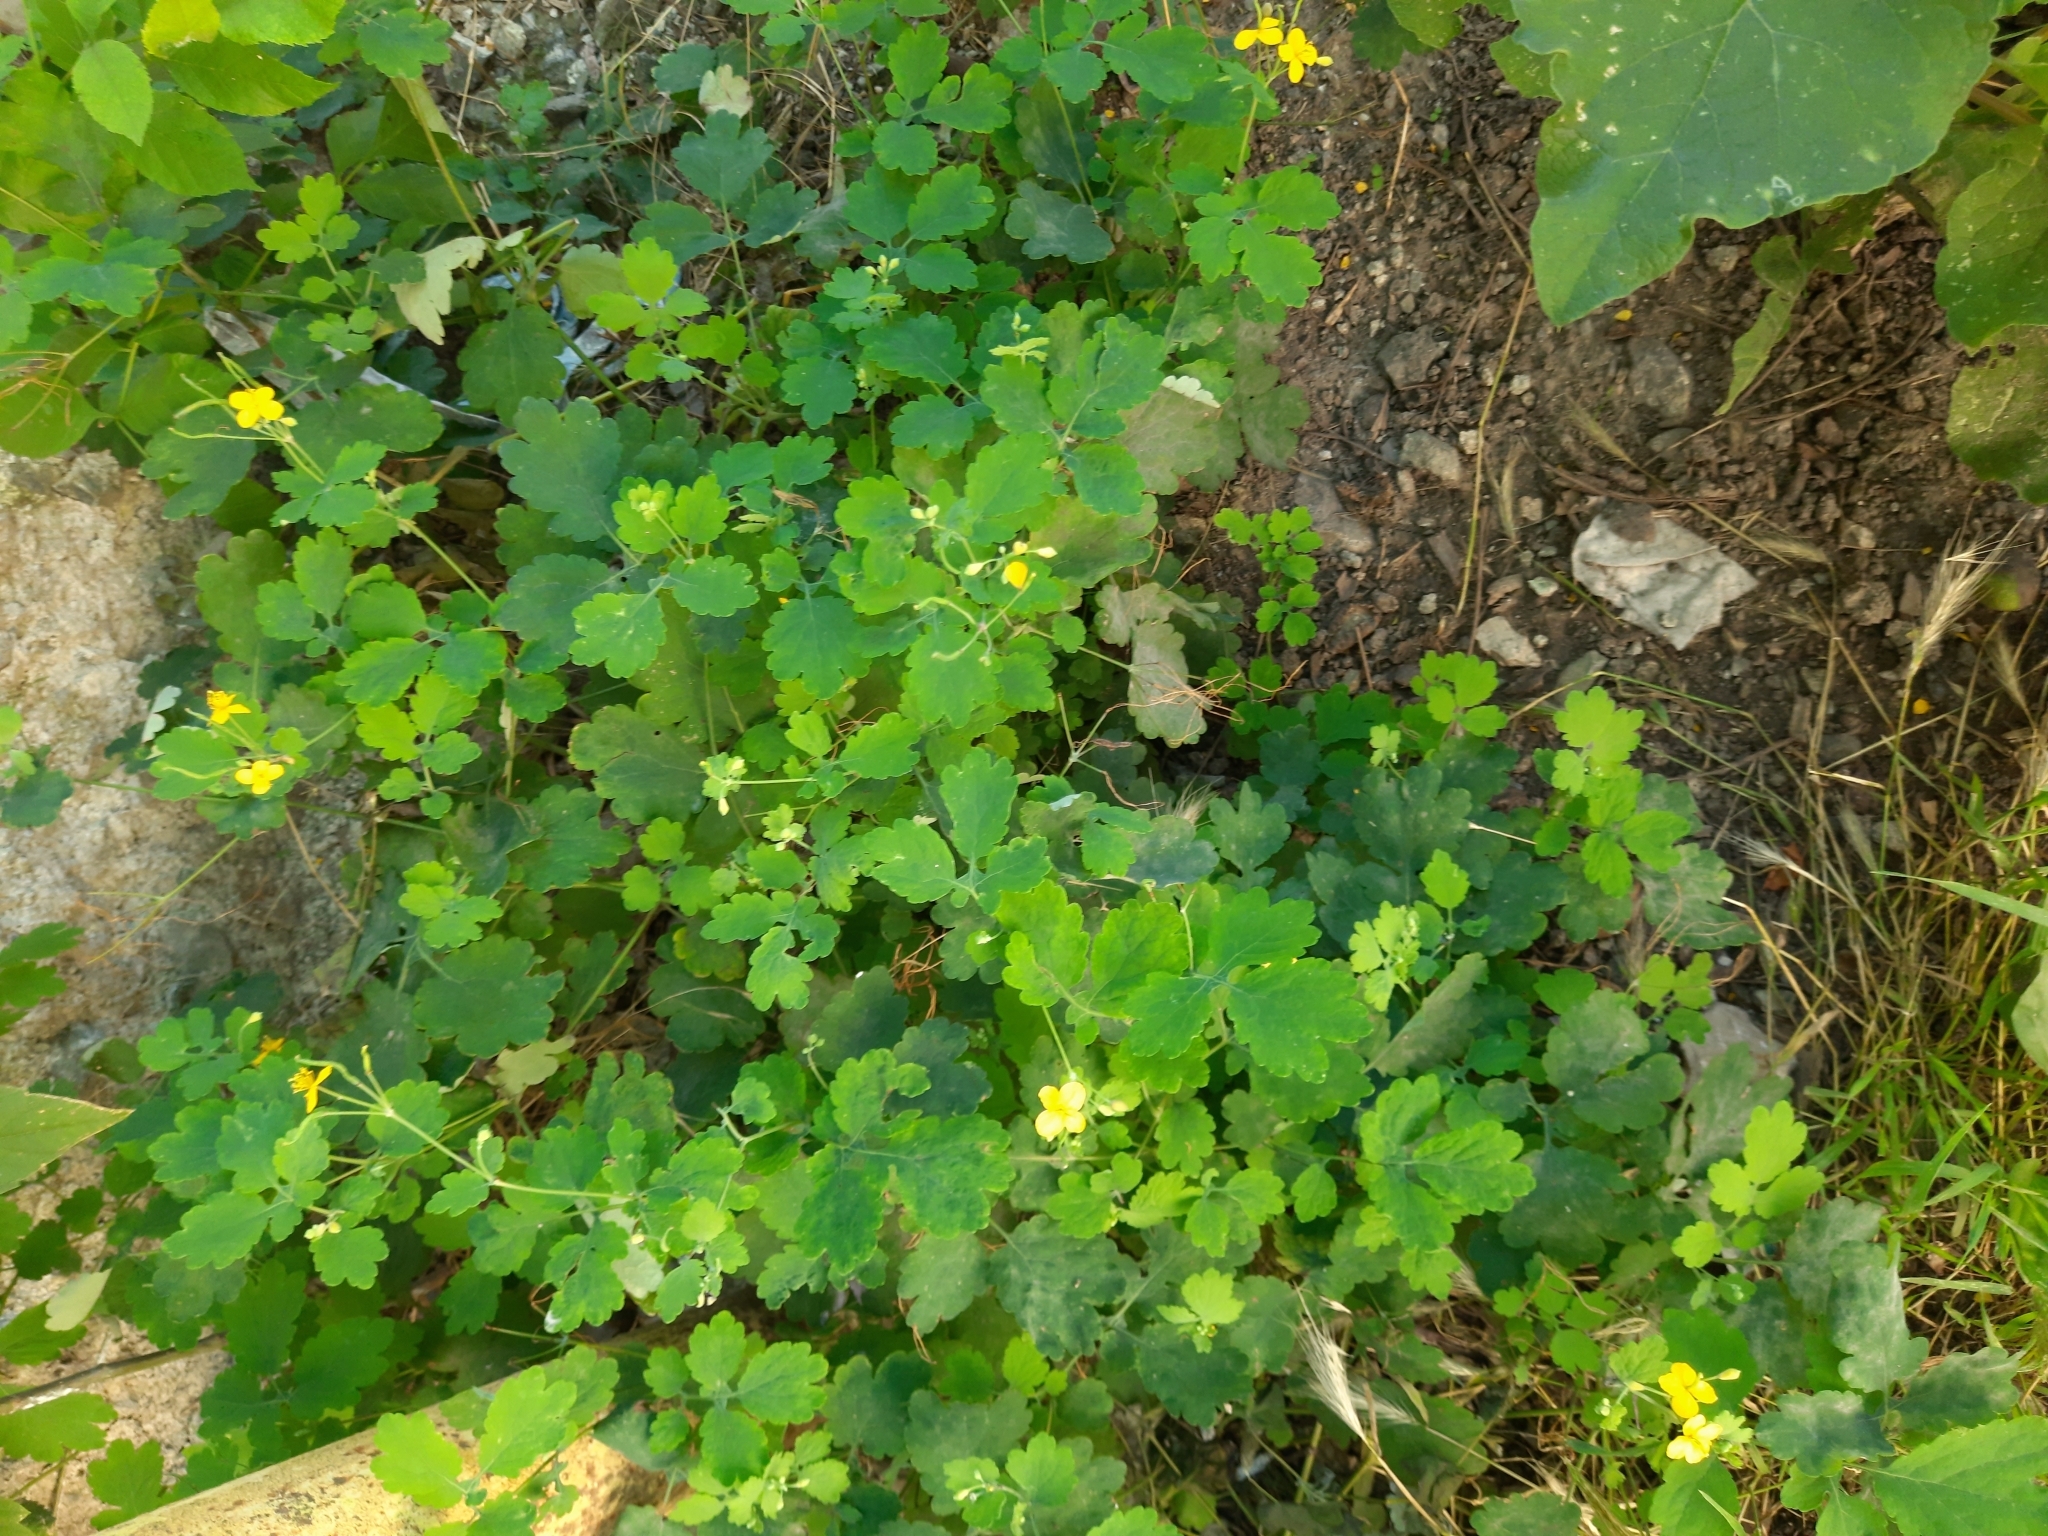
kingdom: Plantae
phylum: Tracheophyta
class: Magnoliopsida
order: Ranunculales
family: Papaveraceae
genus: Chelidonium
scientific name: Chelidonium majus
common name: Greater celandine
